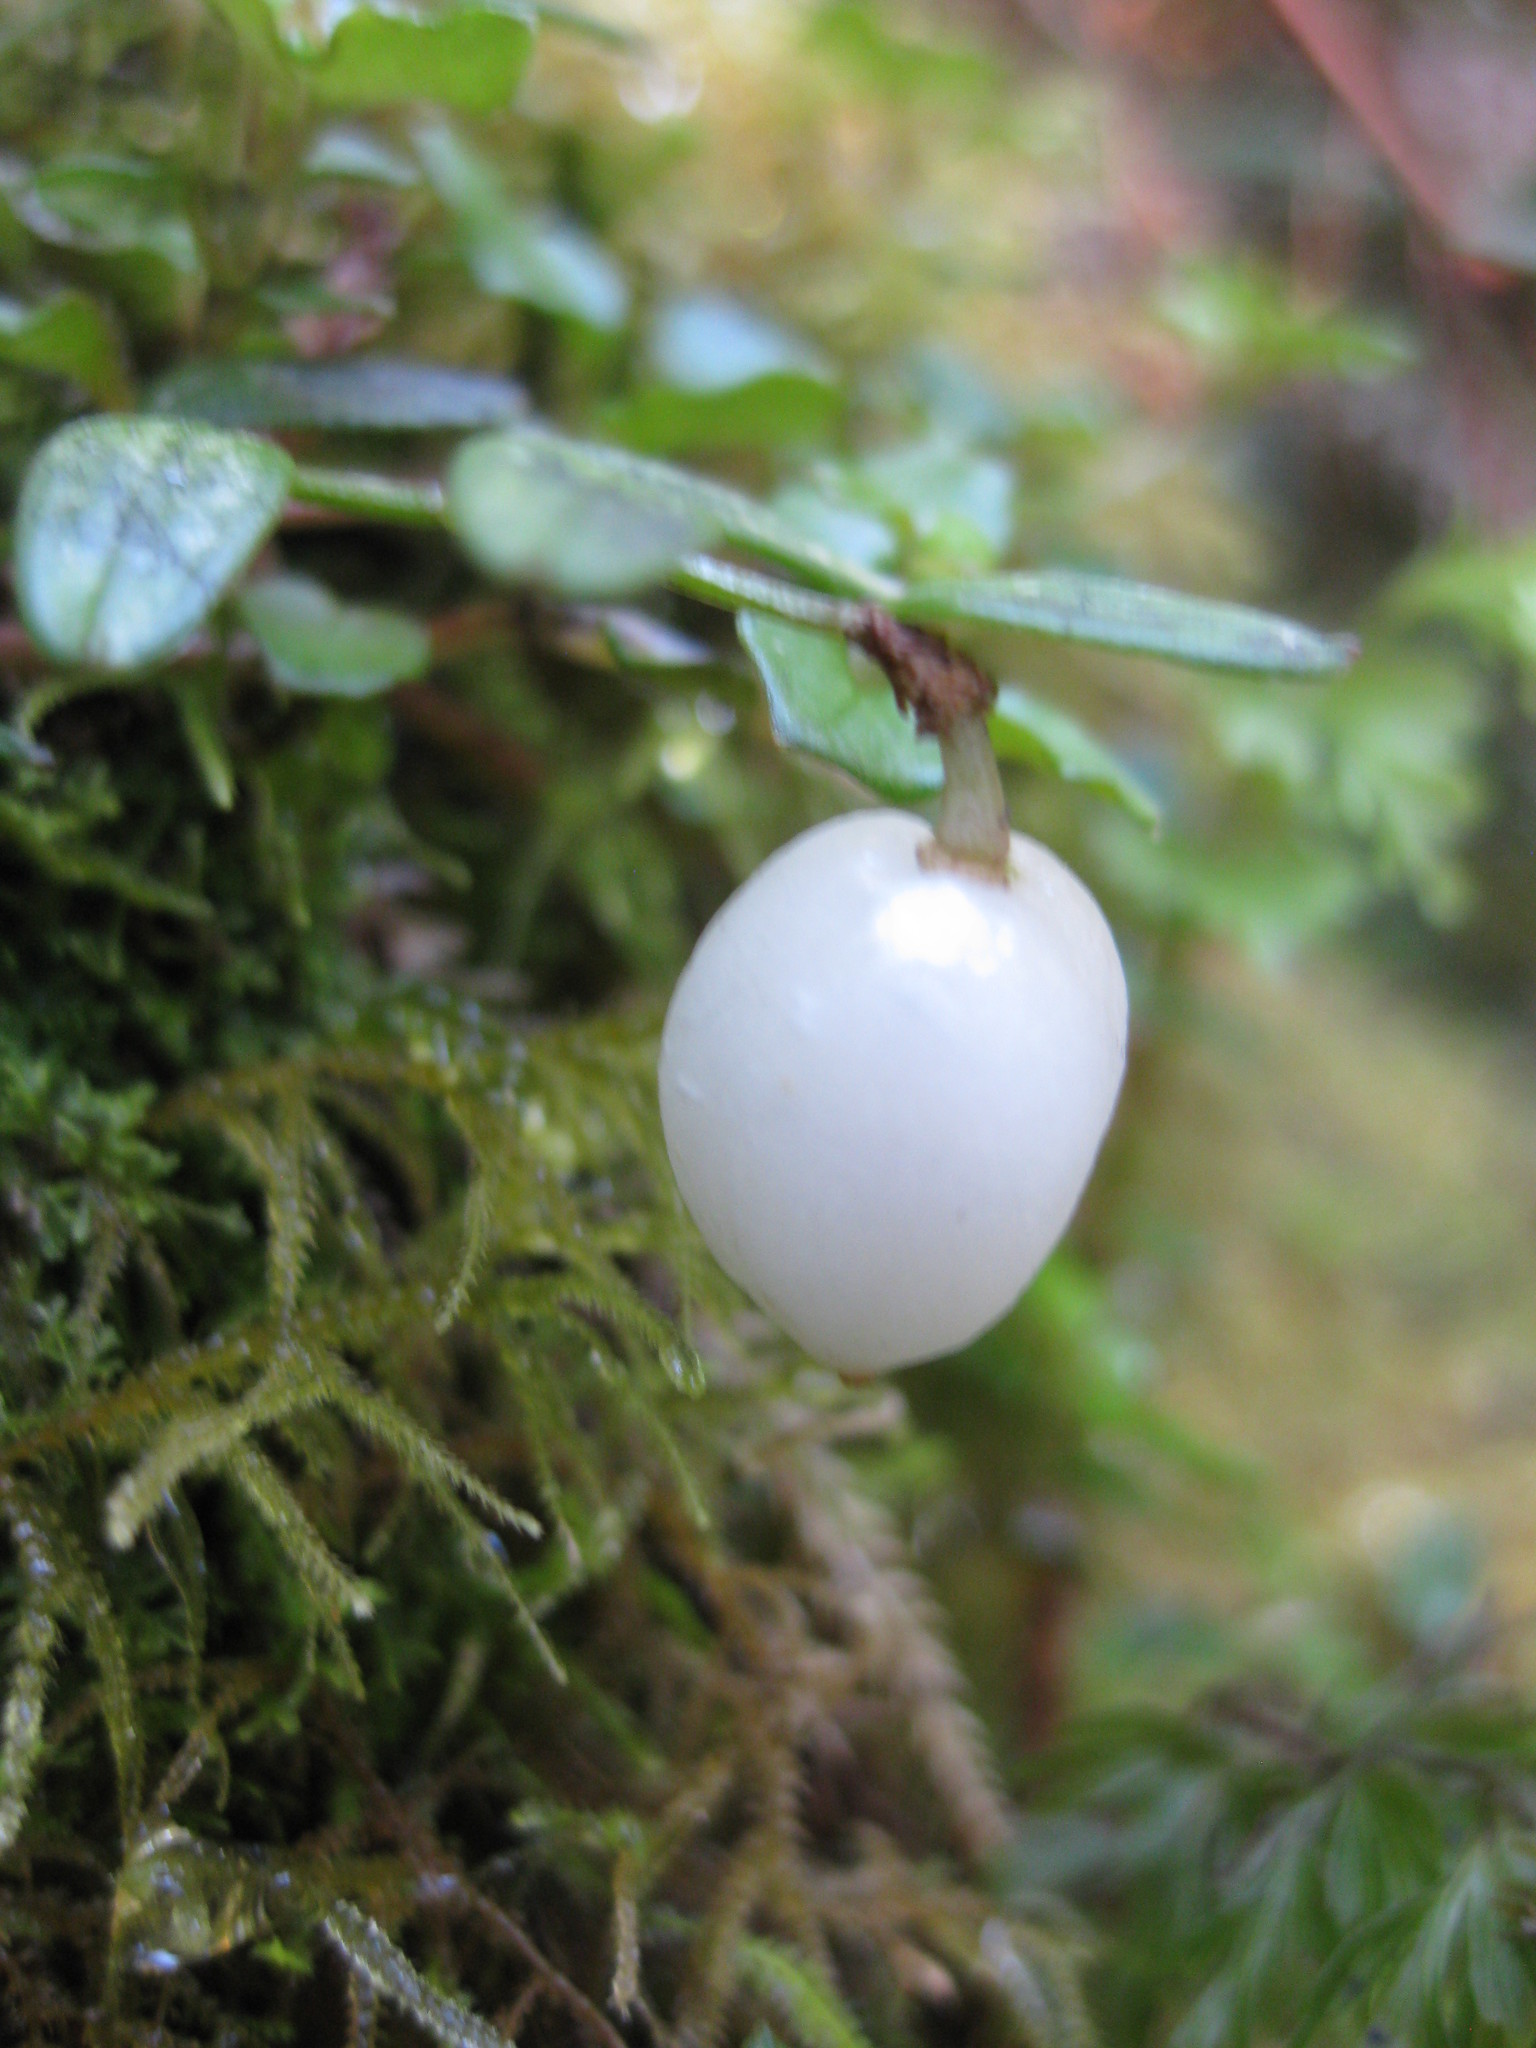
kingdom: Plantae
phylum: Tracheophyta
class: Liliopsida
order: Liliales
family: Alstroemeriaceae
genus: Luzuriaga
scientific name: Luzuriaga parviflora
